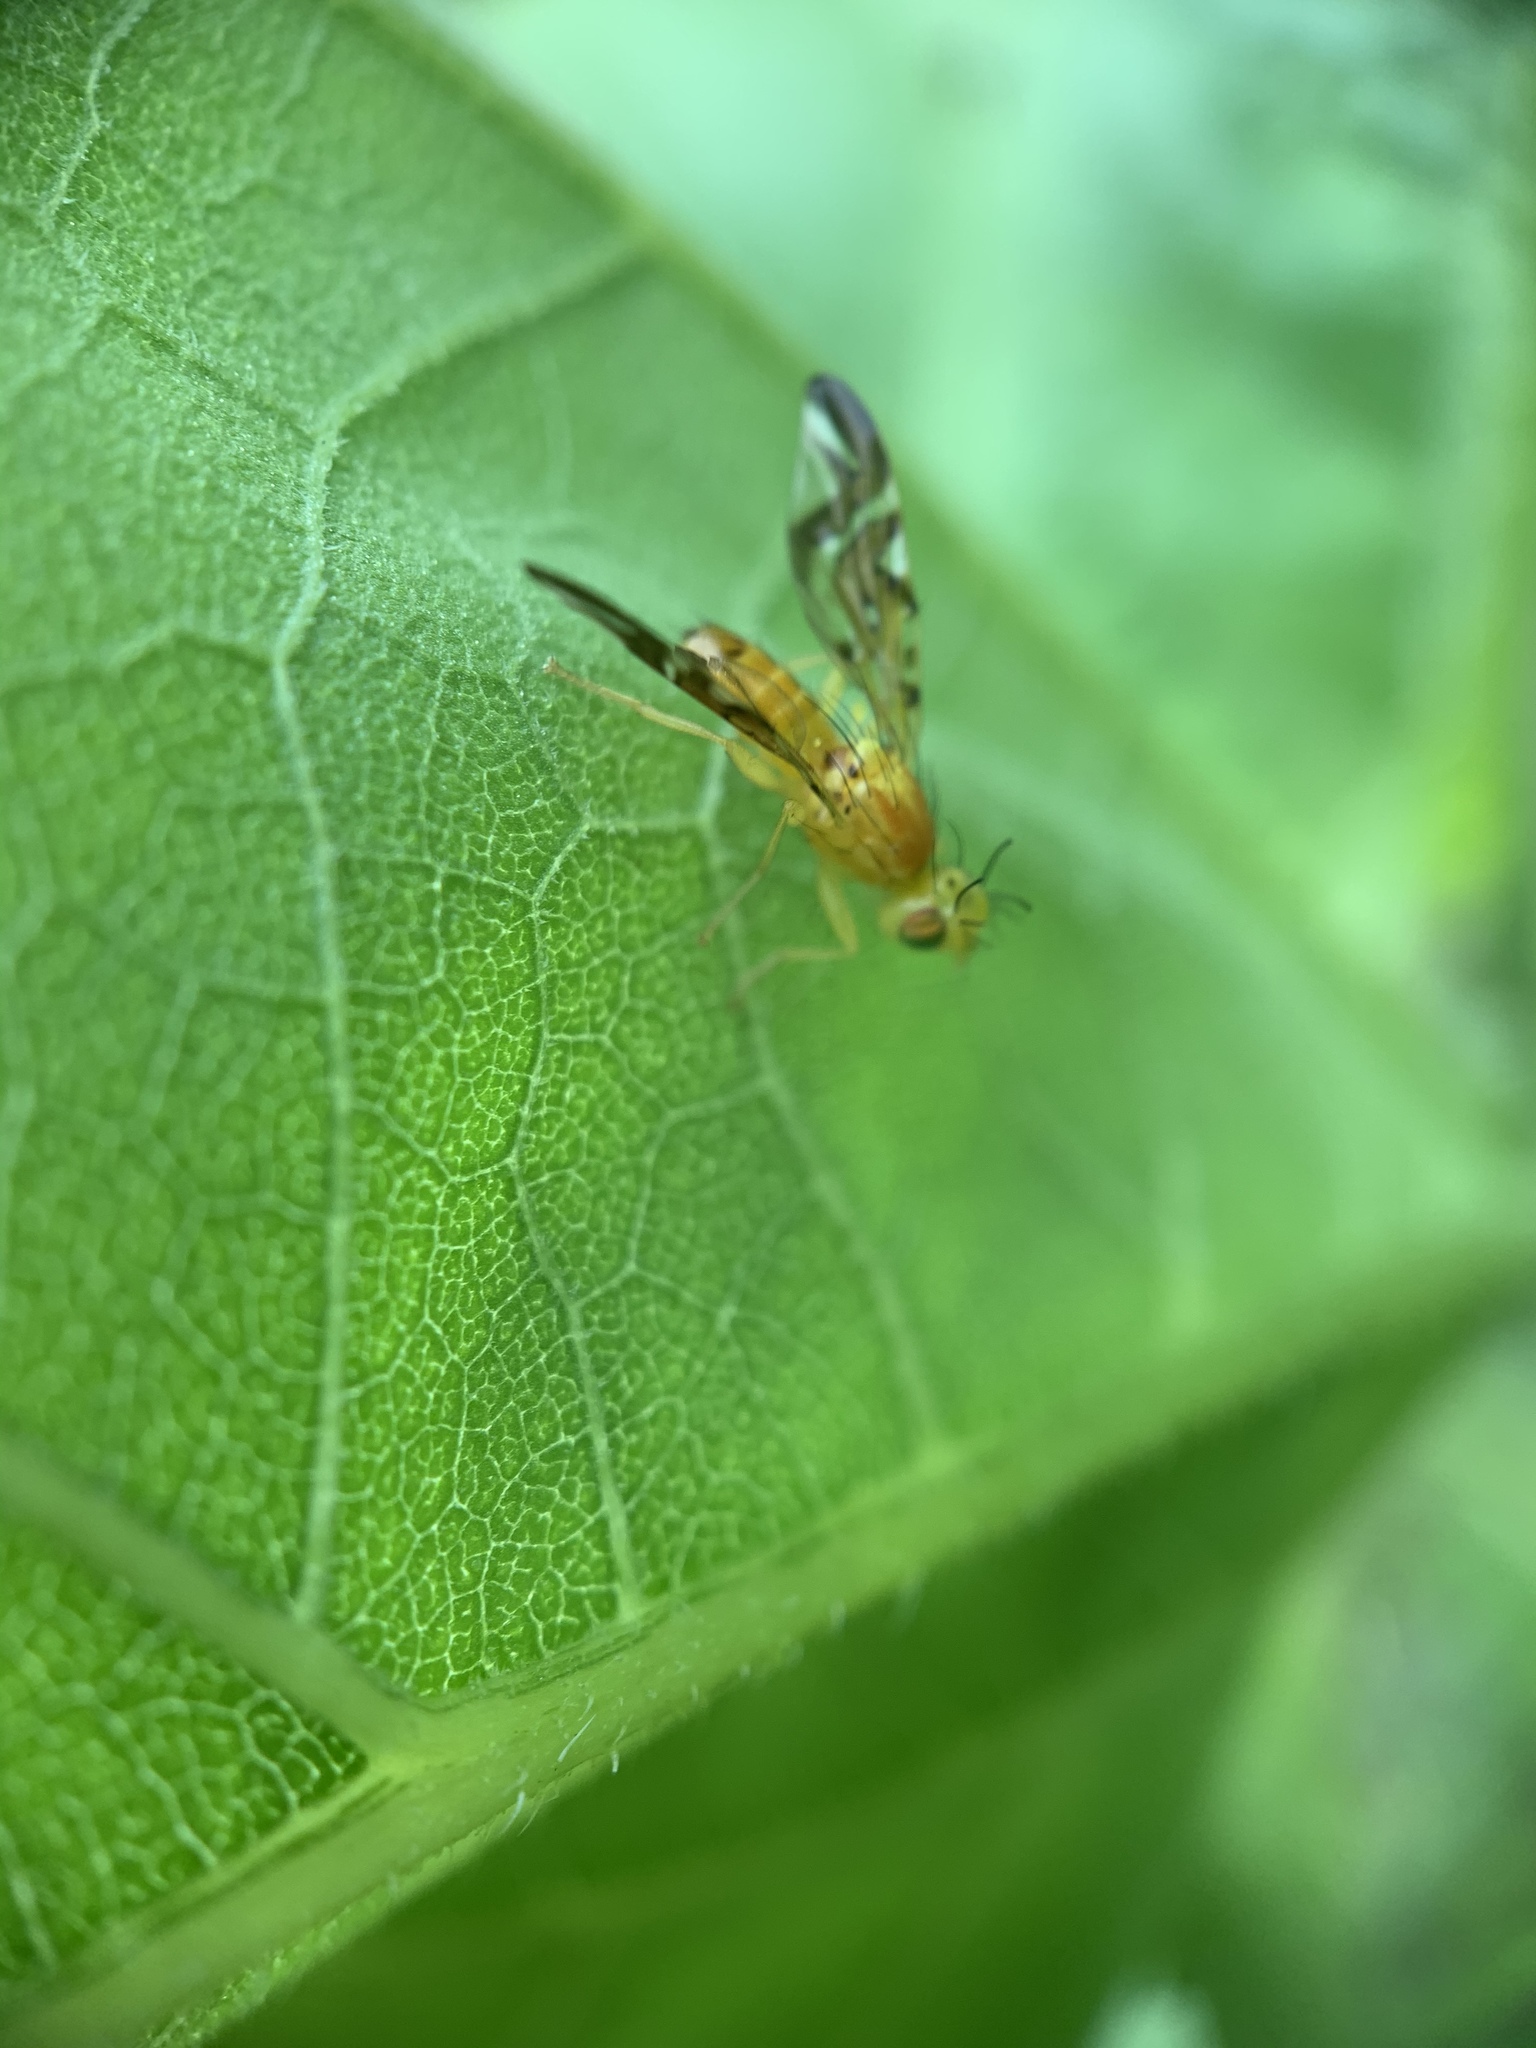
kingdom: Animalia
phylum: Arthropoda
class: Insecta
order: Diptera
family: Tephritidae
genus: Strauzia
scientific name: Strauzia longipennis
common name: Sunflower maggot
